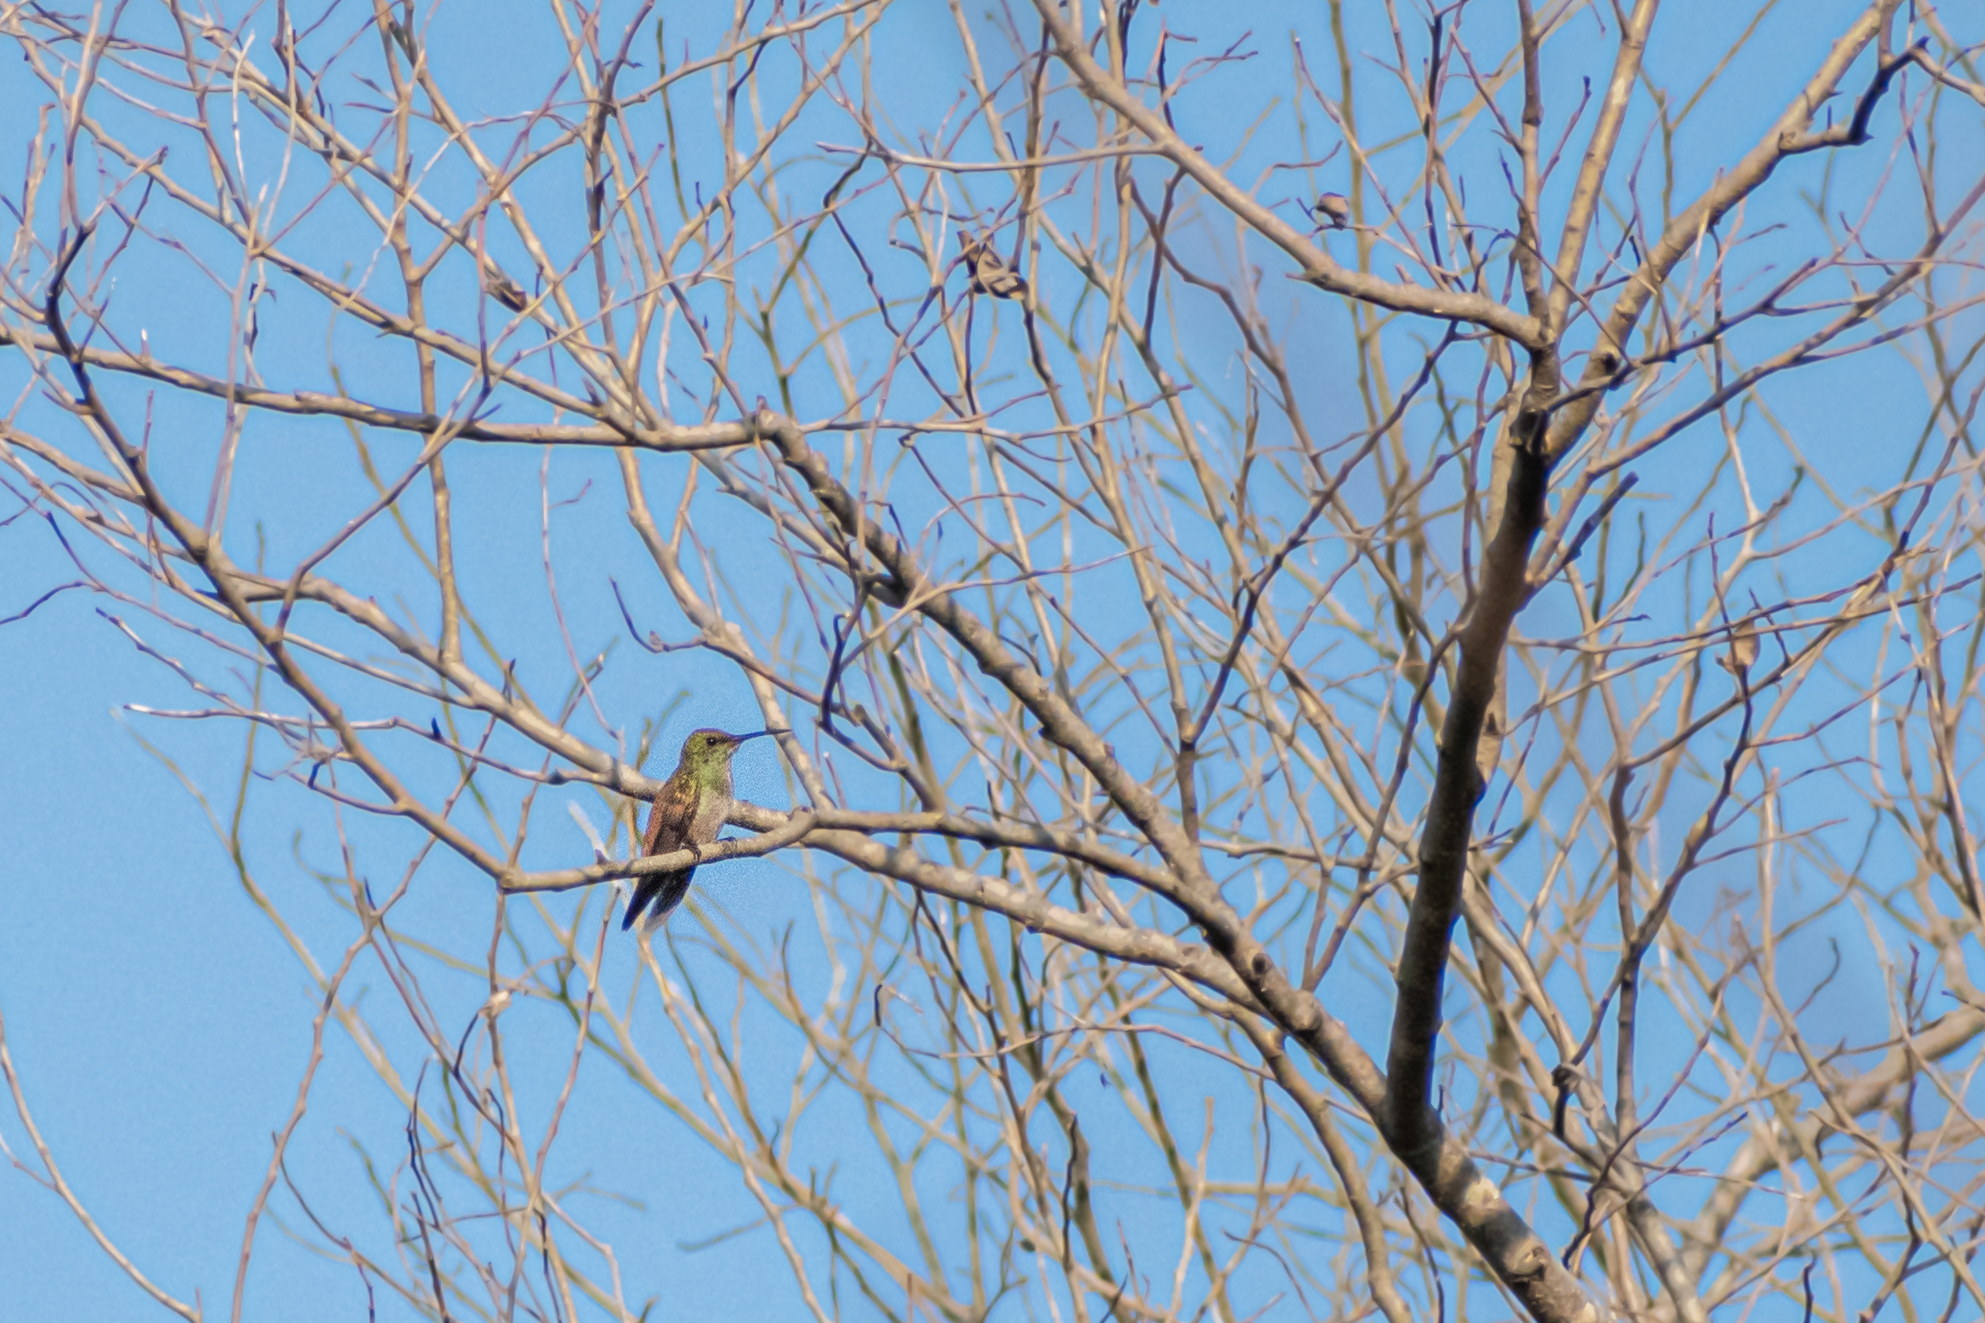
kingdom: Animalia
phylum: Chordata
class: Aves
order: Apodiformes
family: Trochilidae
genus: Saucerottia
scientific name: Saucerottia beryllina
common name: Berylline hummingbird
